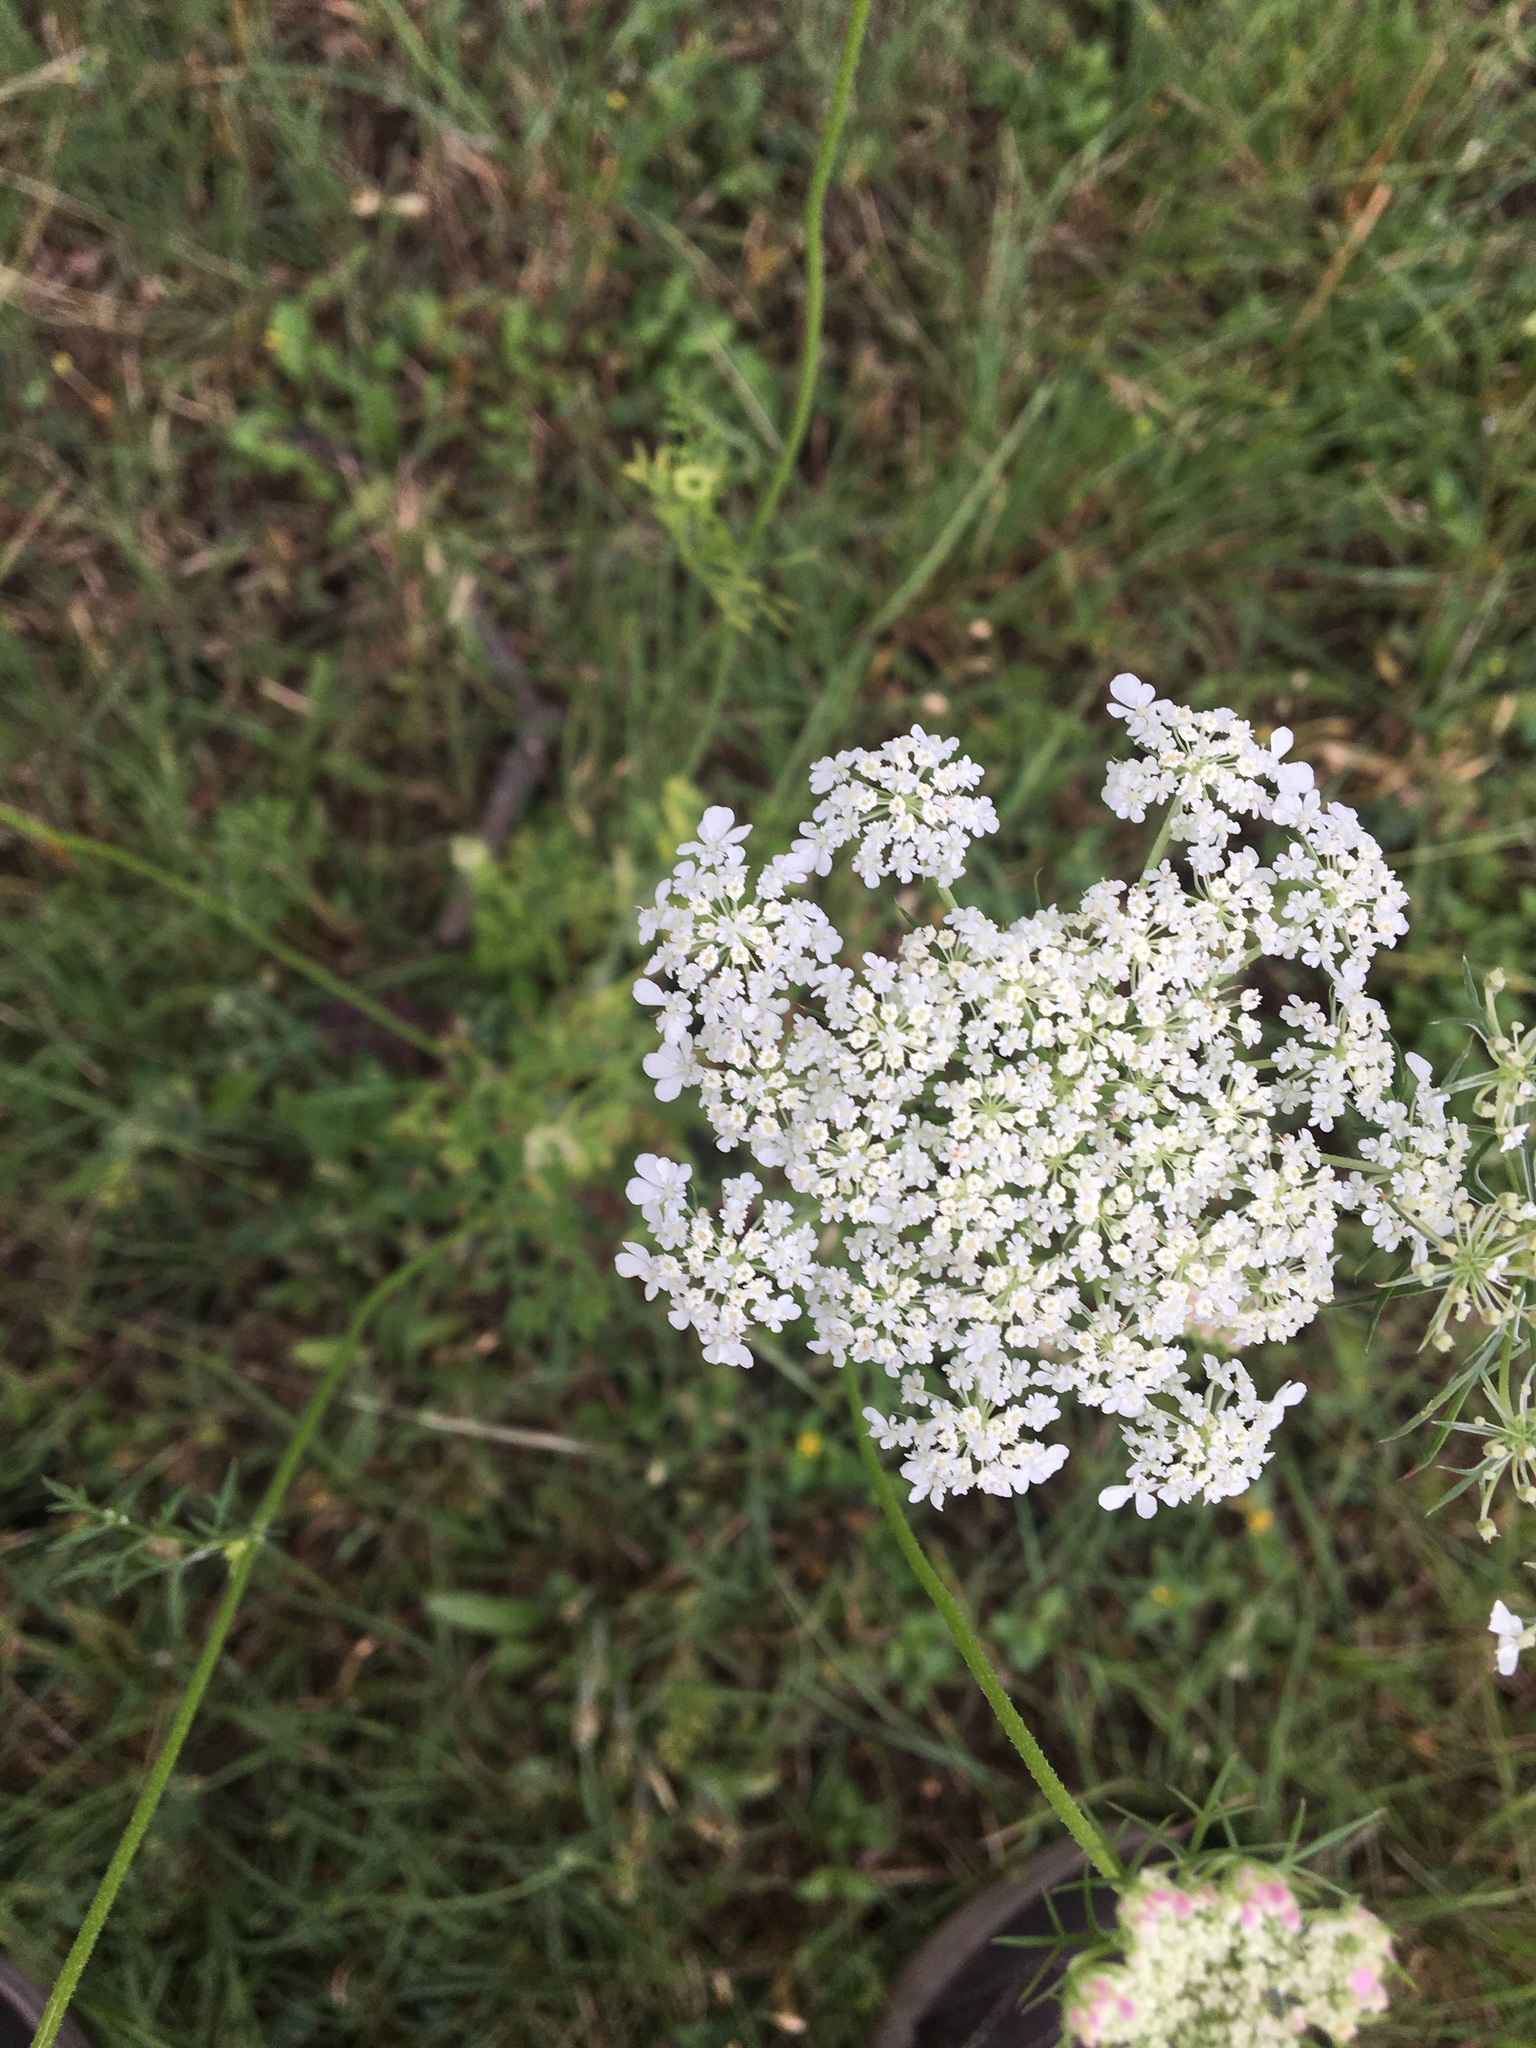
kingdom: Plantae
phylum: Tracheophyta
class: Magnoliopsida
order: Apiales
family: Apiaceae
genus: Daucus
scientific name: Daucus carota
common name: Wild carrot
